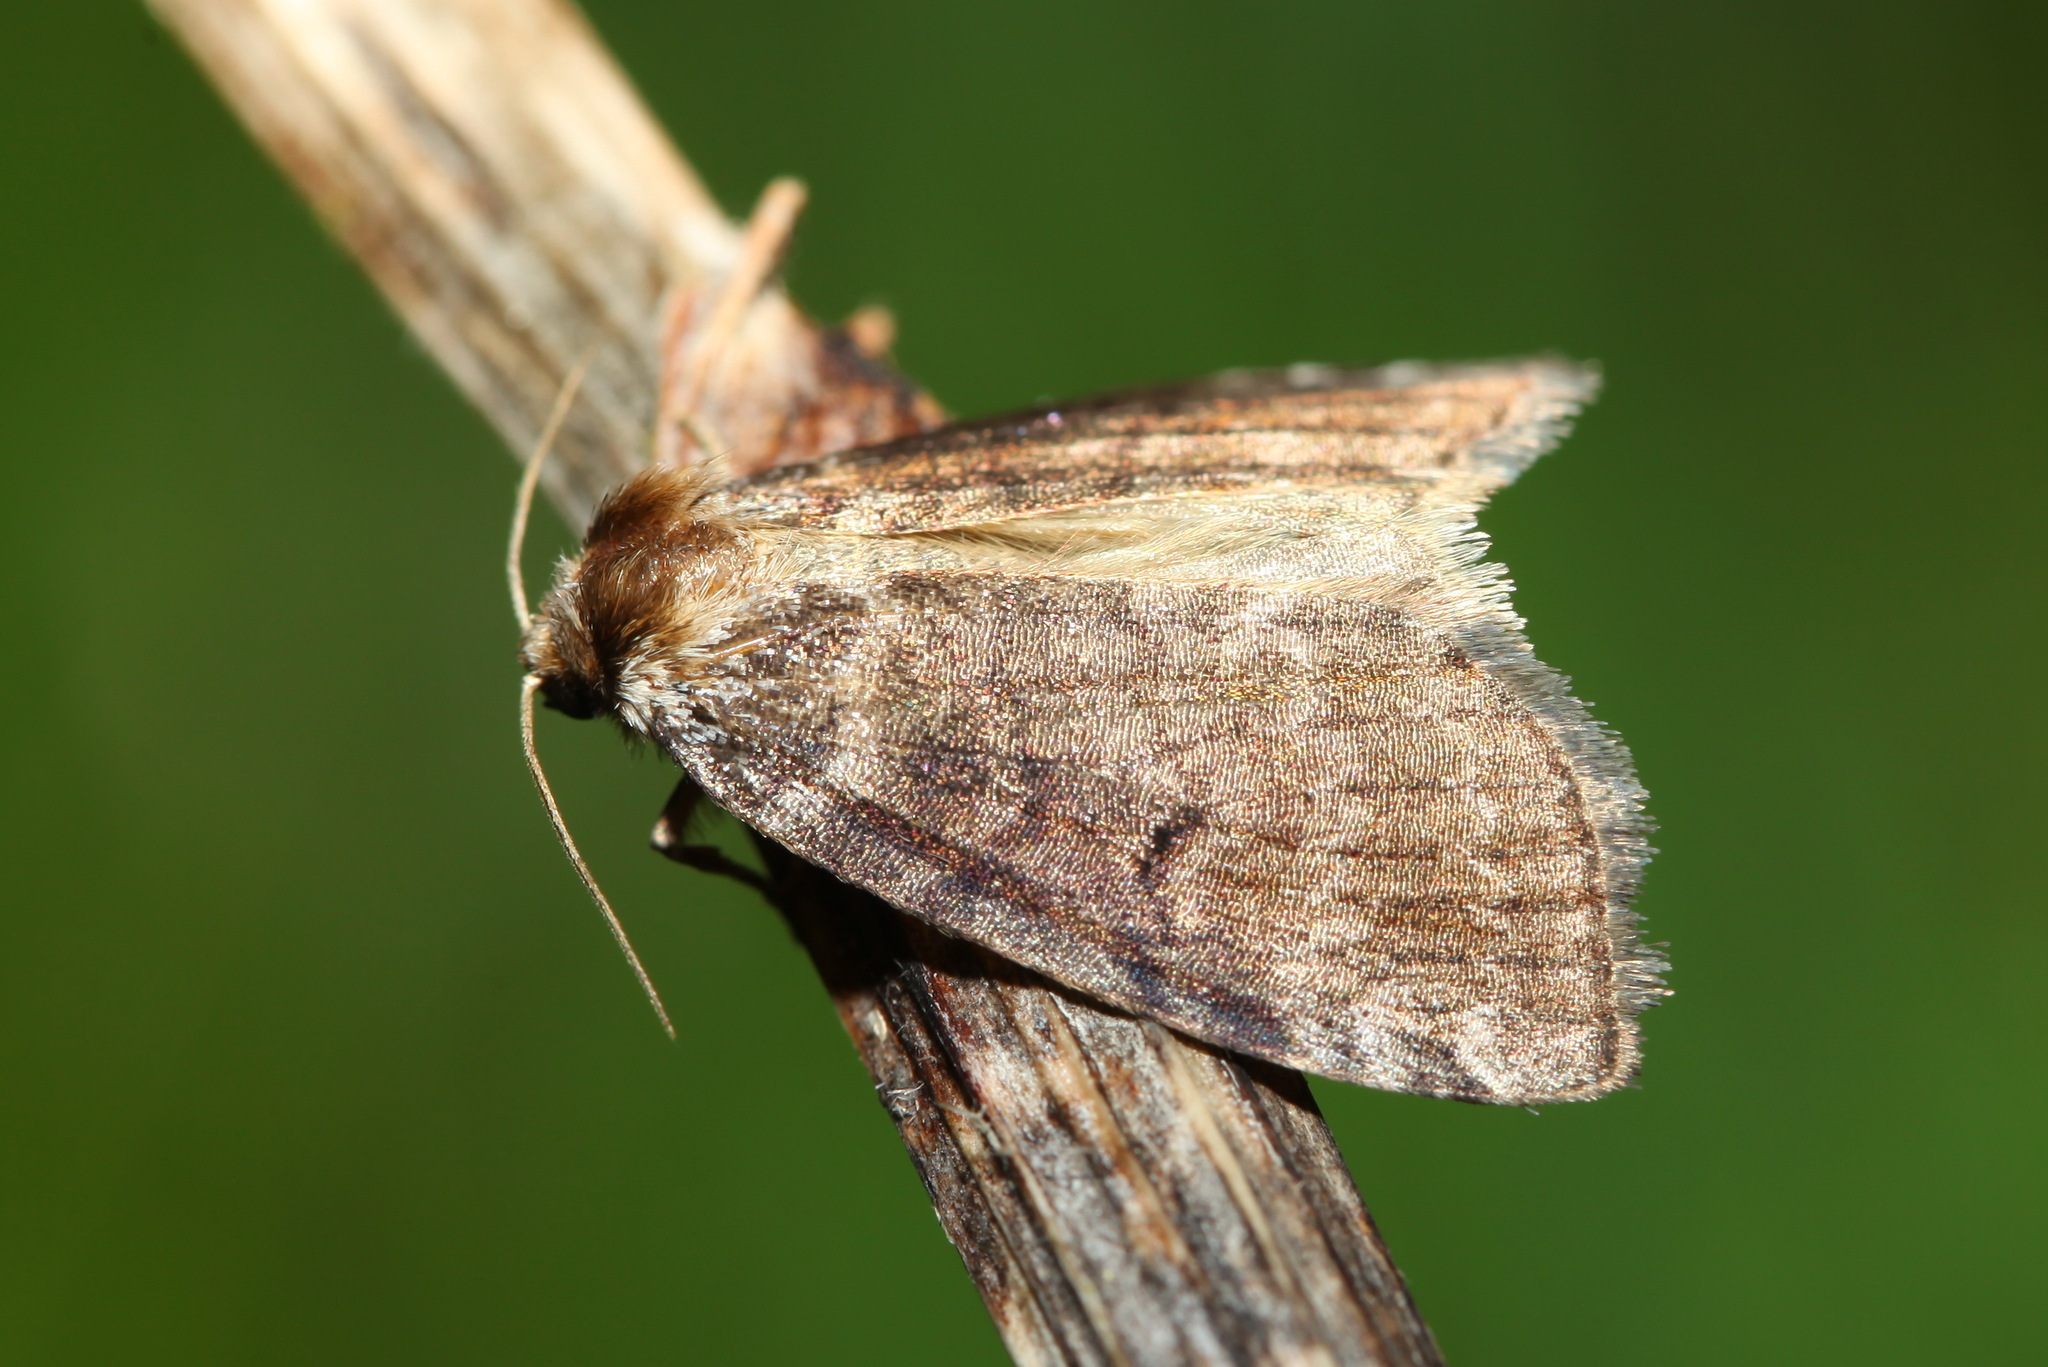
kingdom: Animalia
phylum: Arthropoda
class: Insecta
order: Lepidoptera
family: Drepanidae
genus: Ochropacha
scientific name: Ochropacha duplaris
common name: Common lutestring
